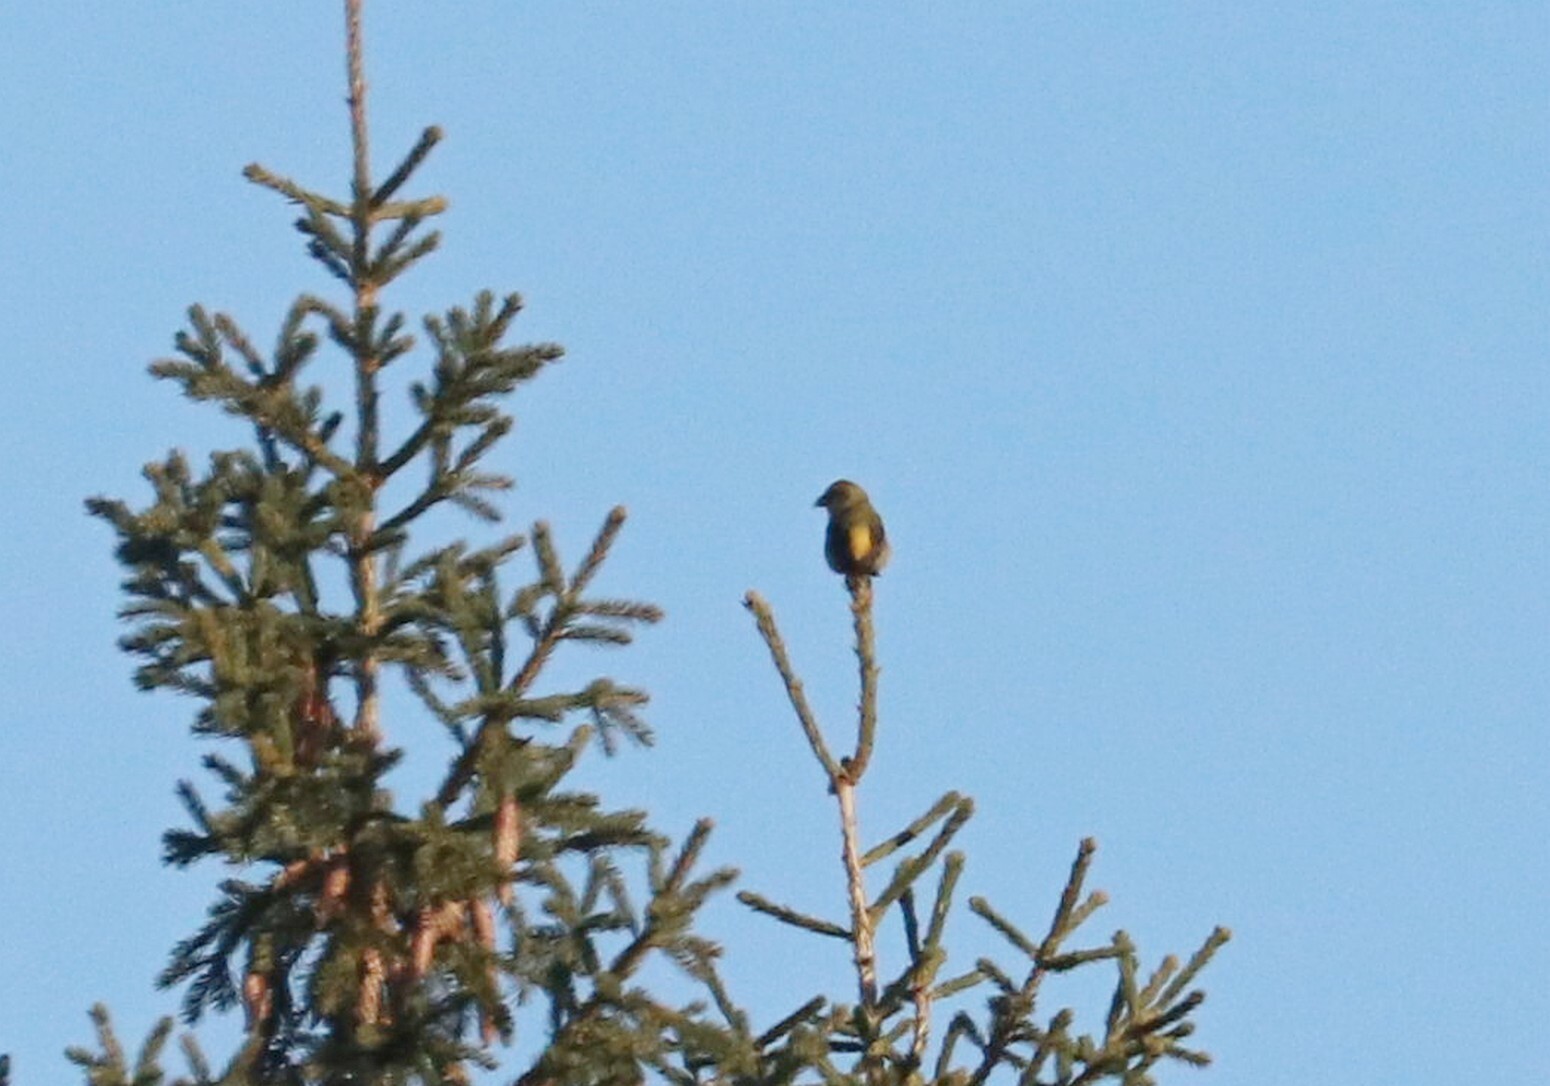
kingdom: Animalia
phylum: Chordata
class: Aves
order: Passeriformes
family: Fringillidae
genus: Loxia
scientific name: Loxia curvirostra
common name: Red crossbill
